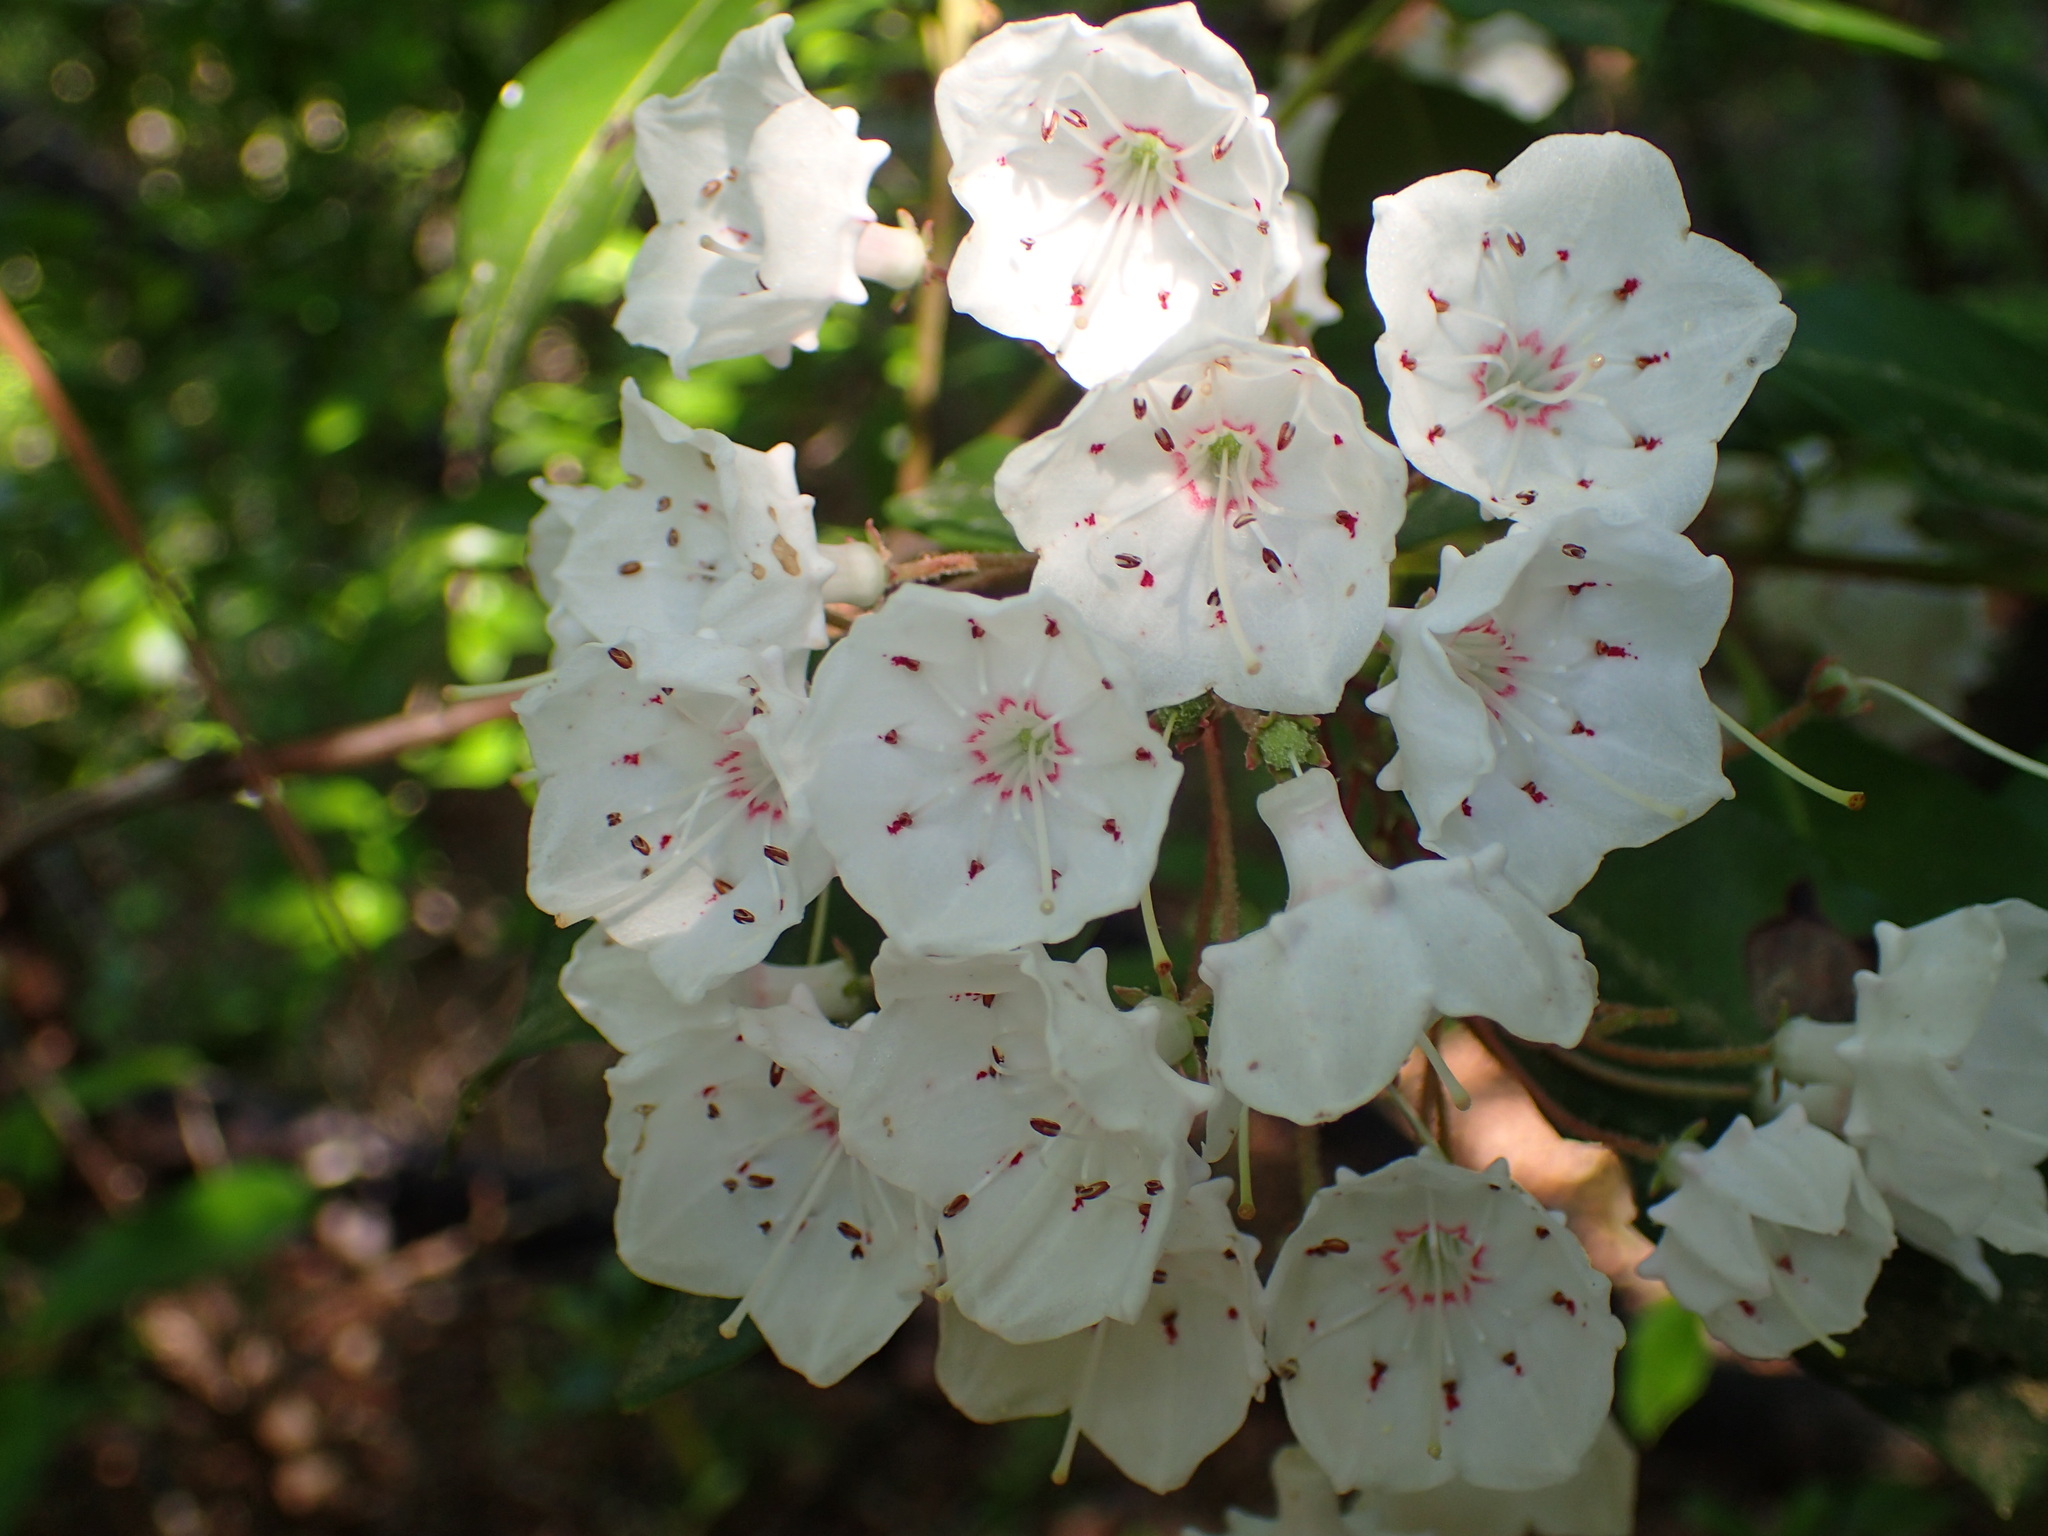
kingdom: Plantae
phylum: Tracheophyta
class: Magnoliopsida
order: Ericales
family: Ericaceae
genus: Kalmia
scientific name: Kalmia latifolia
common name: Mountain-laurel
